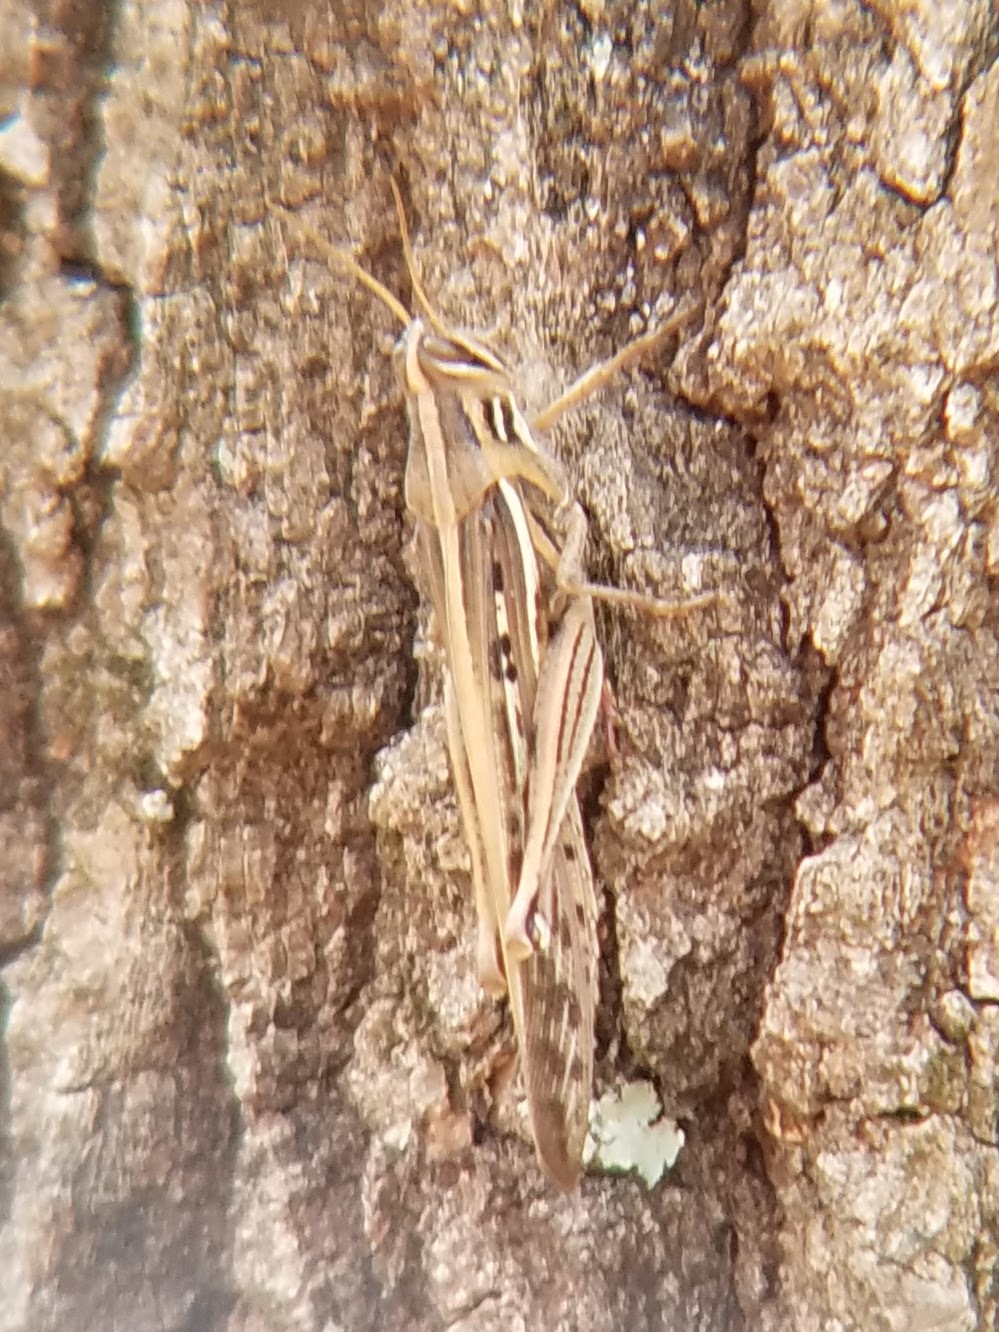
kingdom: Animalia
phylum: Arthropoda
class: Insecta
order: Orthoptera
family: Acrididae
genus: Schistocerca
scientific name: Schistocerca americana
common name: American bird locust
